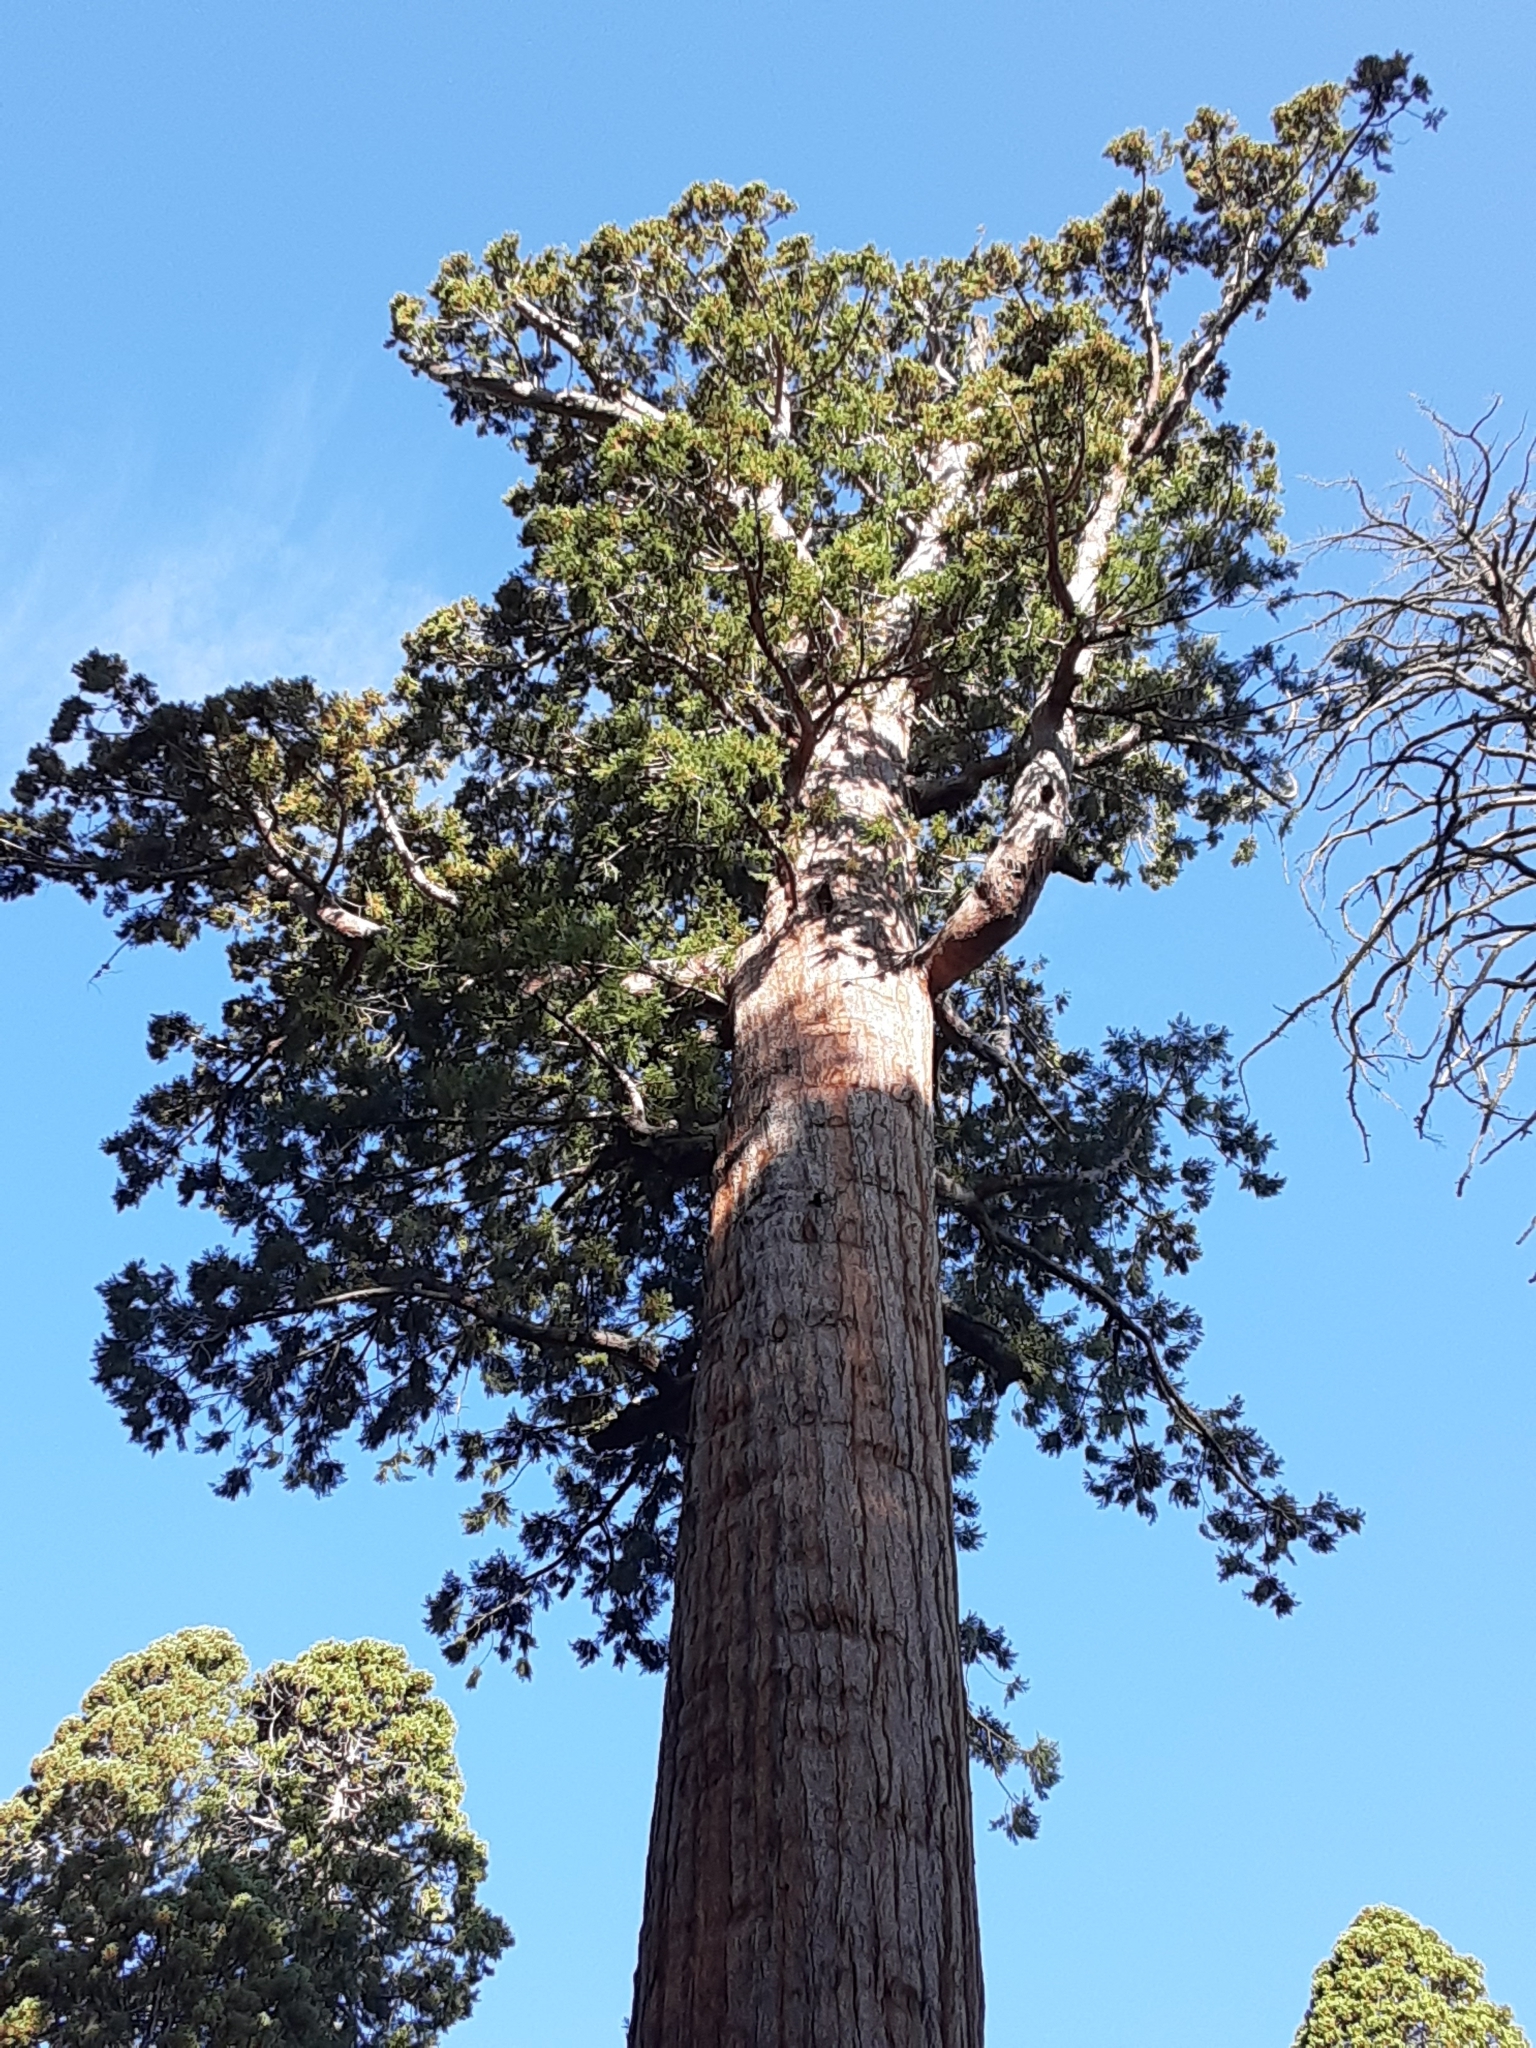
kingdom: Plantae
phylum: Tracheophyta
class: Pinopsida
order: Pinales
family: Cupressaceae
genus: Sequoiadendron
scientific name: Sequoiadendron giganteum
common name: Wellingtonia
